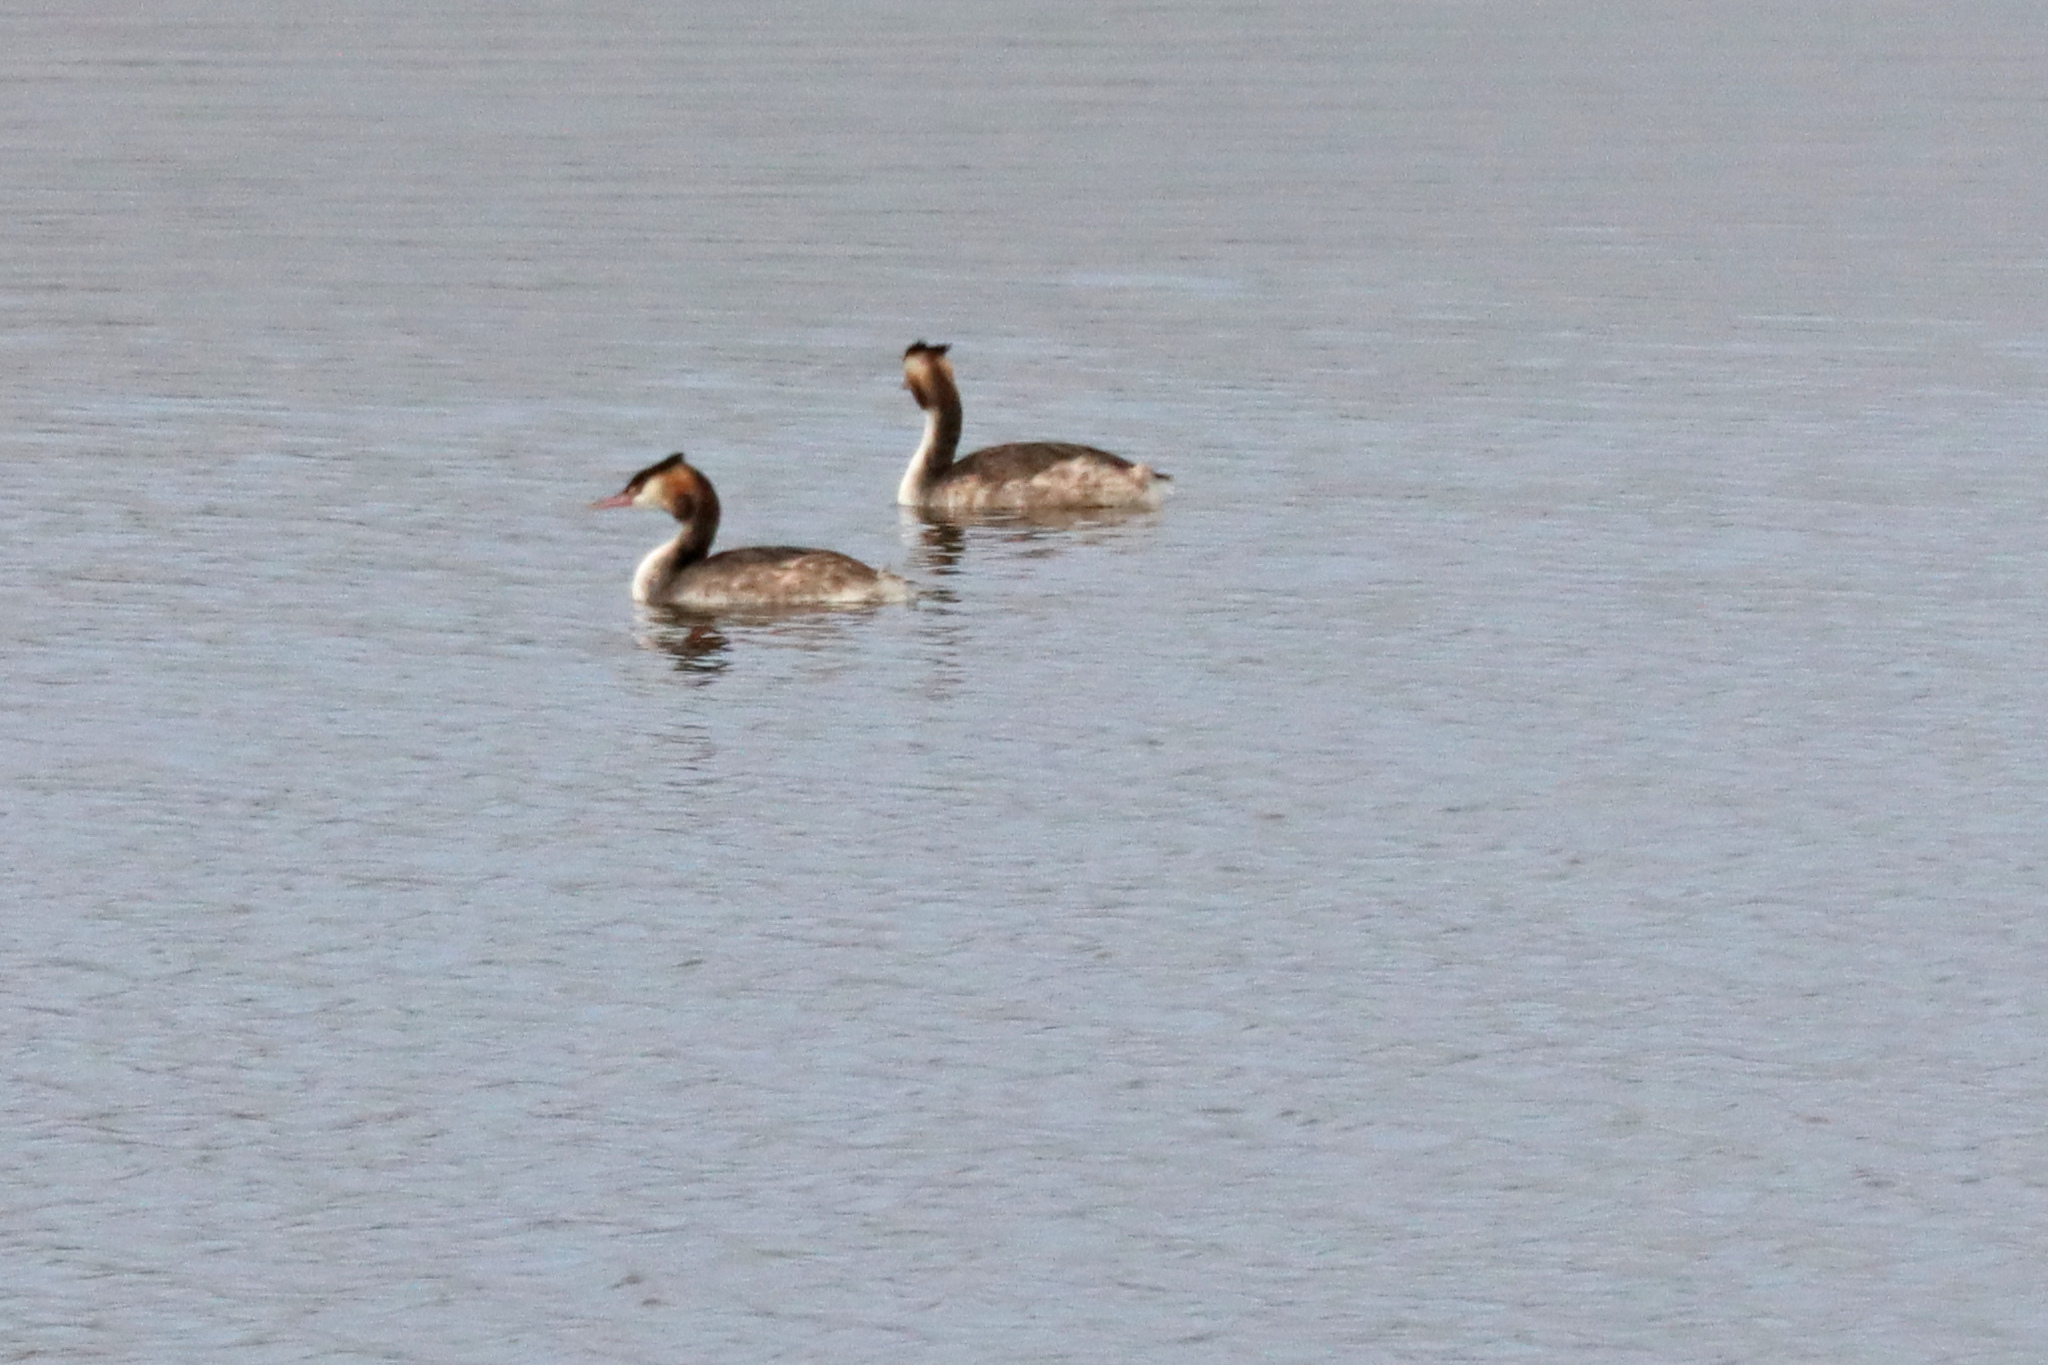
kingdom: Animalia
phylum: Chordata
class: Aves
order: Podicipediformes
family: Podicipedidae
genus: Podiceps
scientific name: Podiceps cristatus
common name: Great crested grebe
